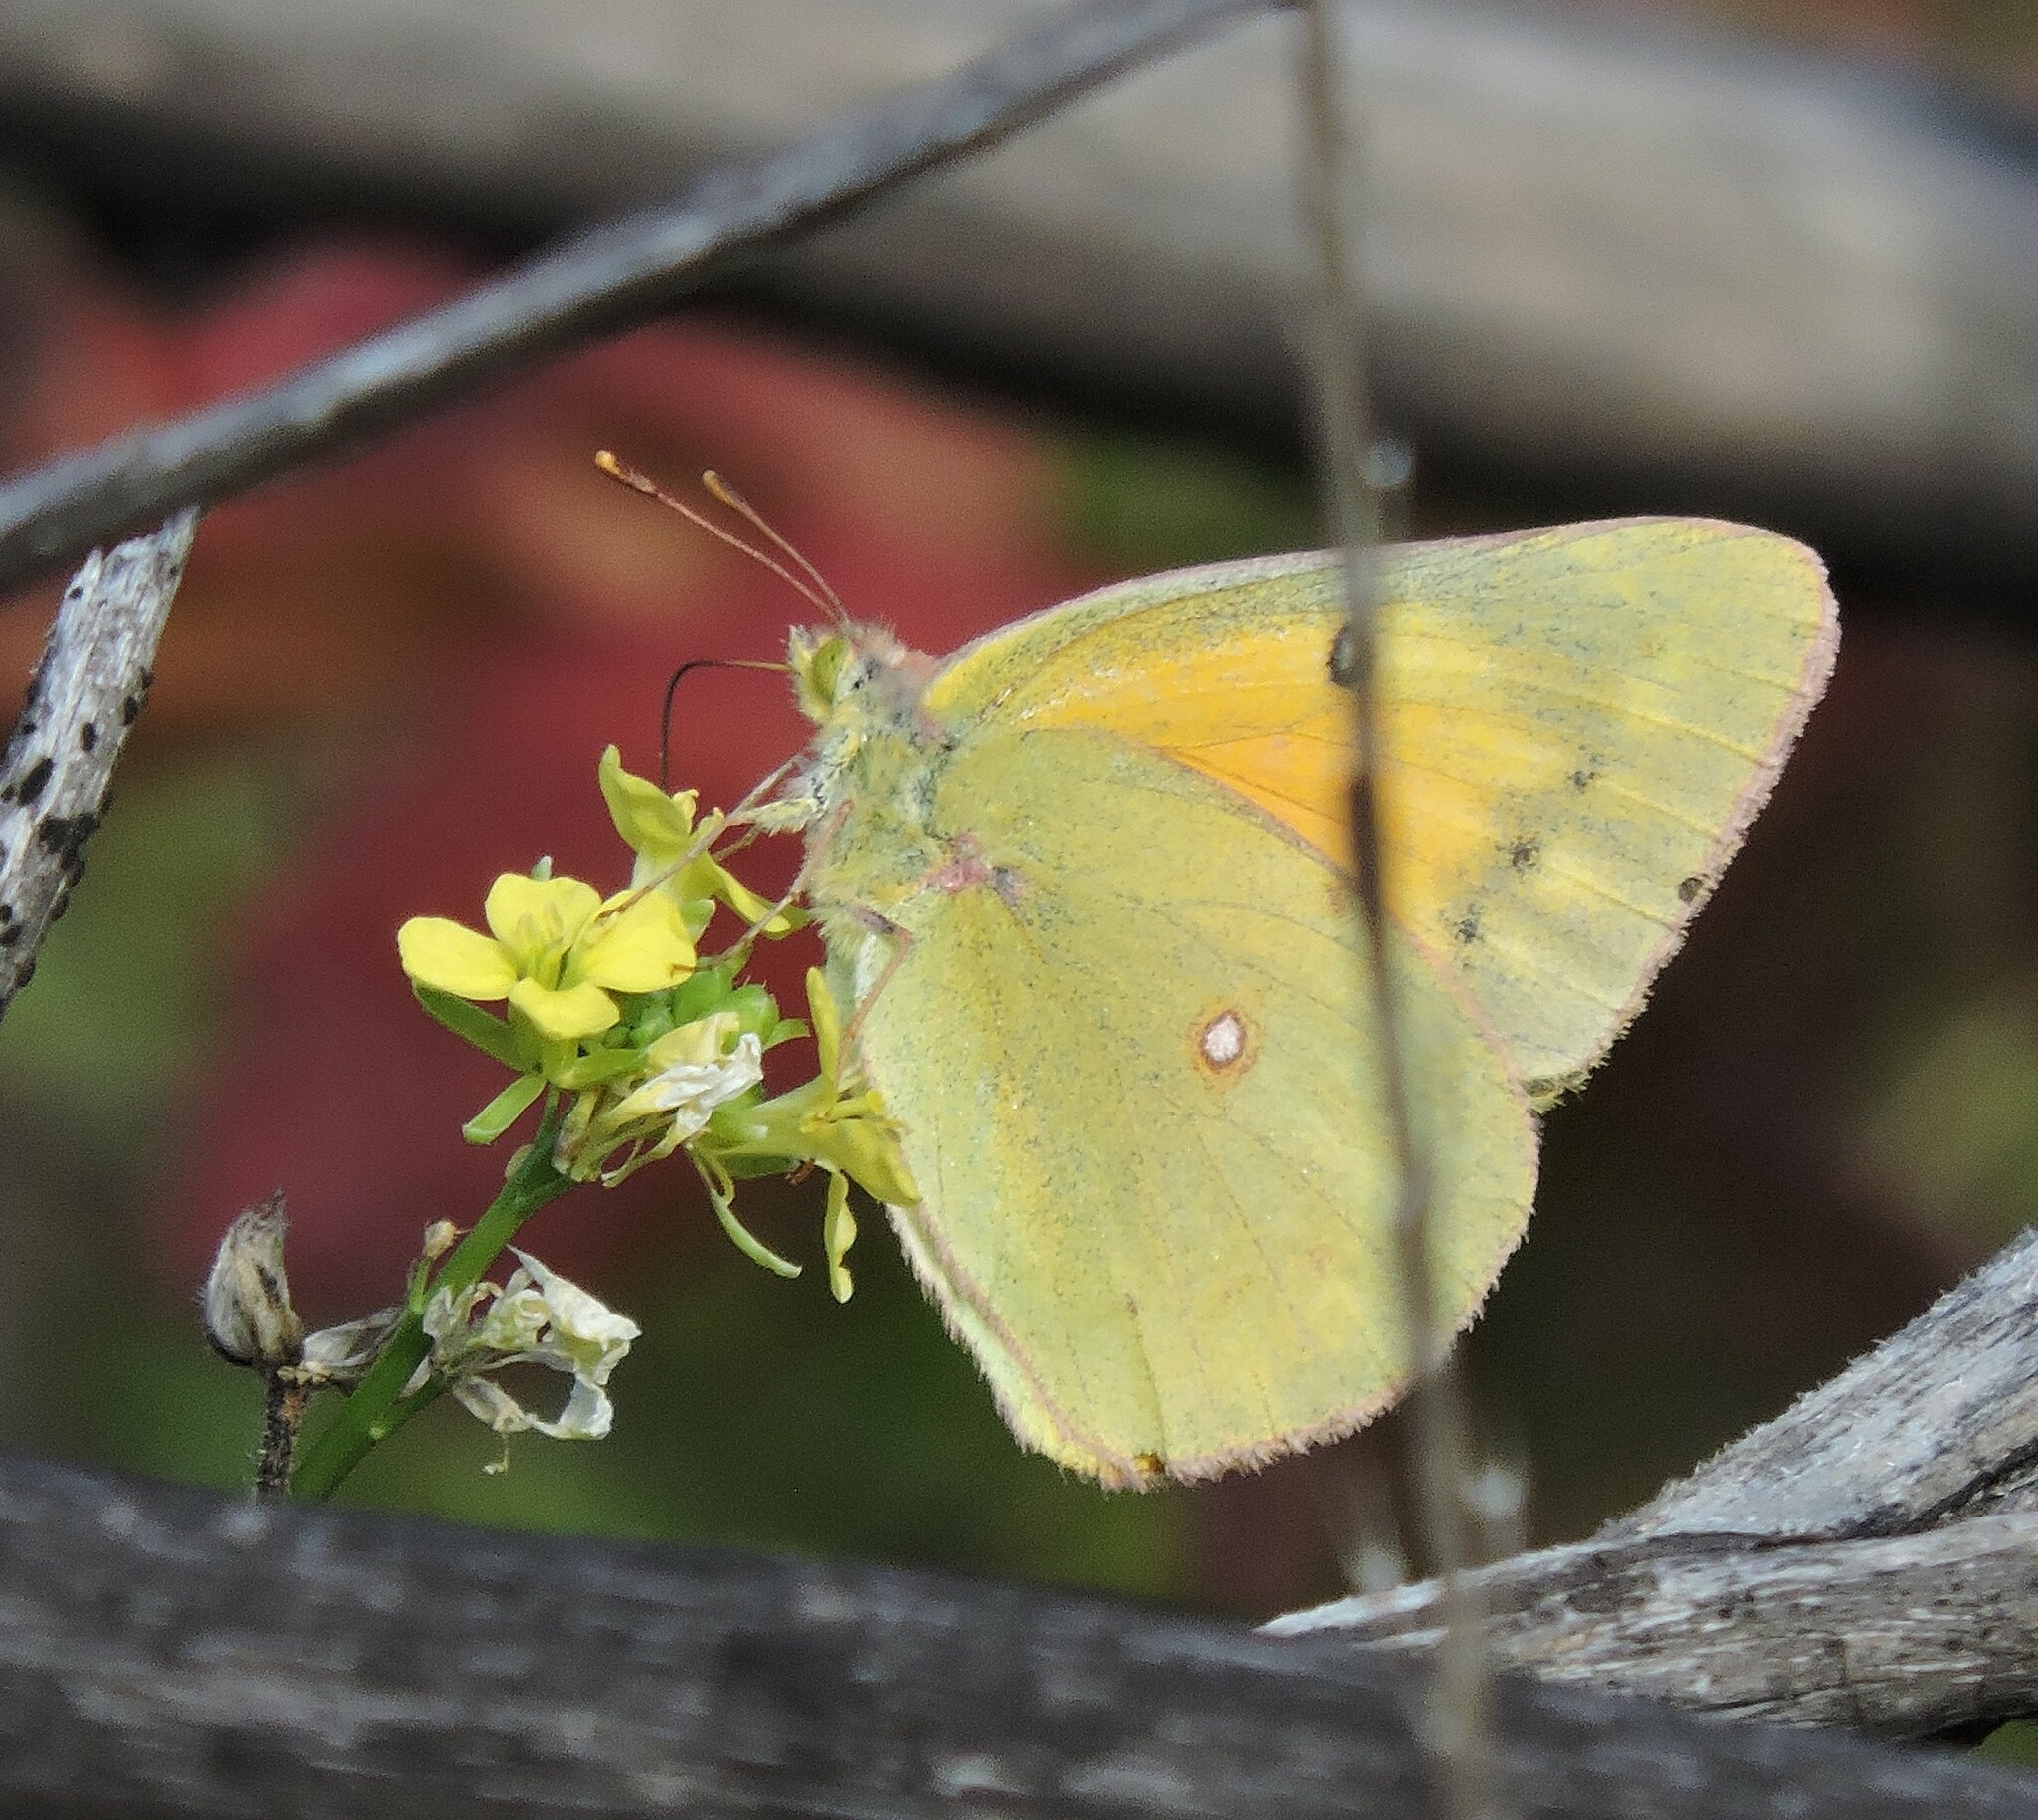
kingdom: Animalia
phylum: Arthropoda
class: Insecta
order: Lepidoptera
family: Pieridae
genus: Colias
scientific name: Colias eurytheme
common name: Alfalfa butterfly
